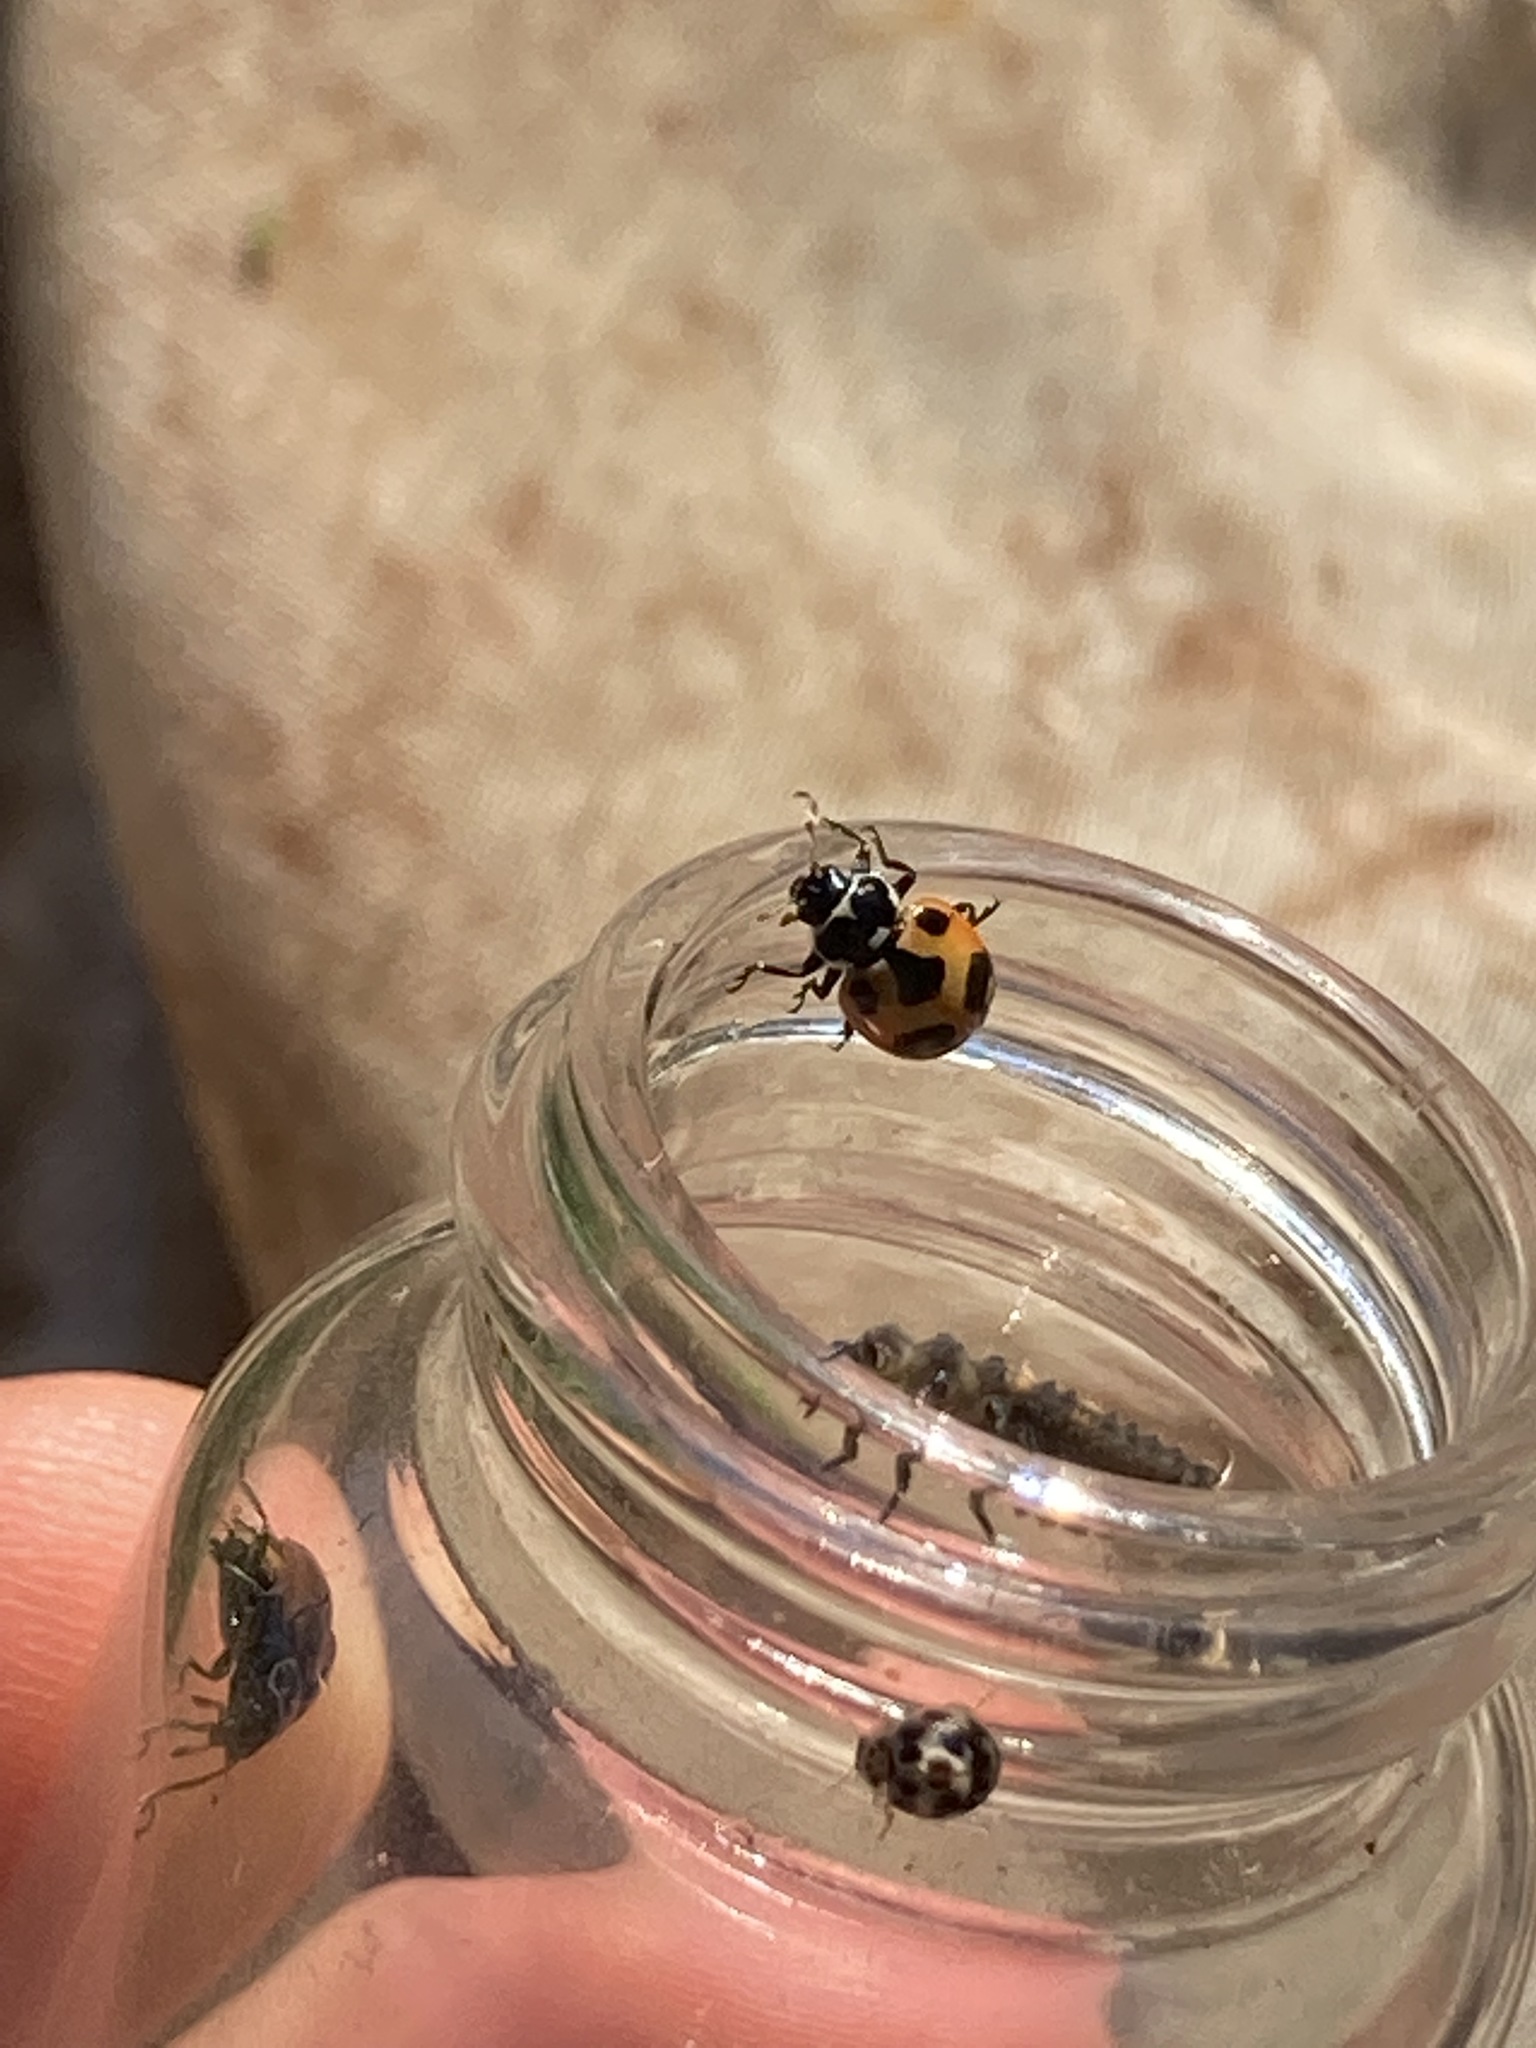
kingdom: Animalia
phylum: Arthropoda
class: Insecta
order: Coleoptera
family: Coccinellidae
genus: Psyllobora
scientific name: Psyllobora vigintimaculata
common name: Ladybird beetle
